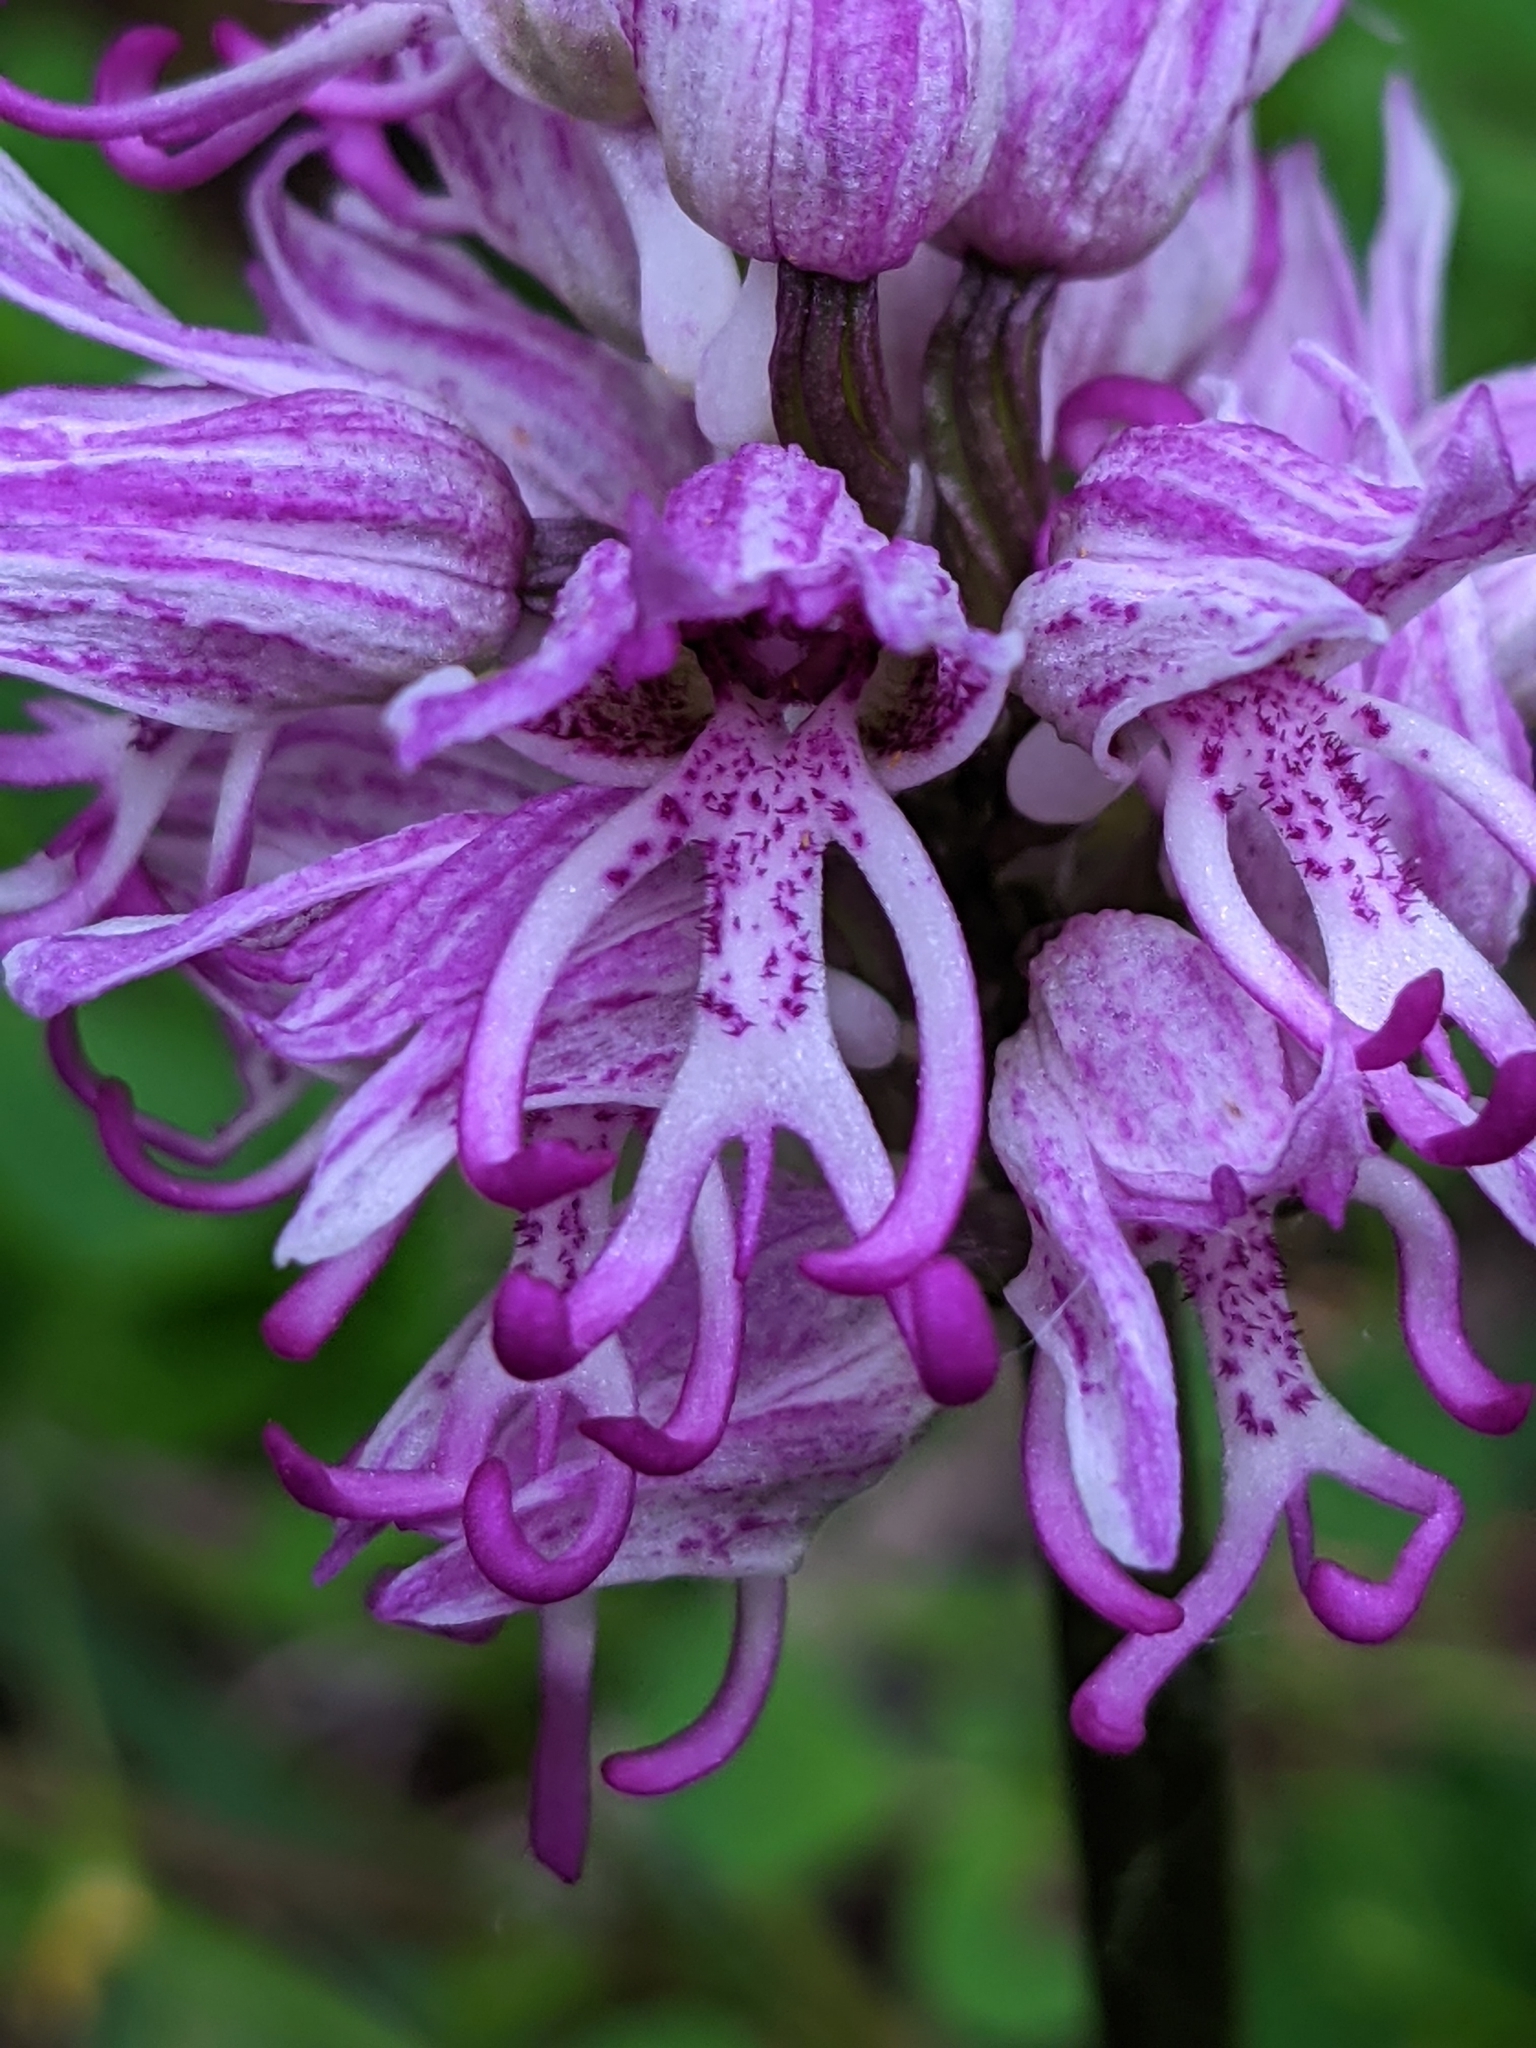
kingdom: Plantae
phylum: Tracheophyta
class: Liliopsida
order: Asparagales
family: Orchidaceae
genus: Orchis
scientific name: Orchis simia
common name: Monkey orchid
